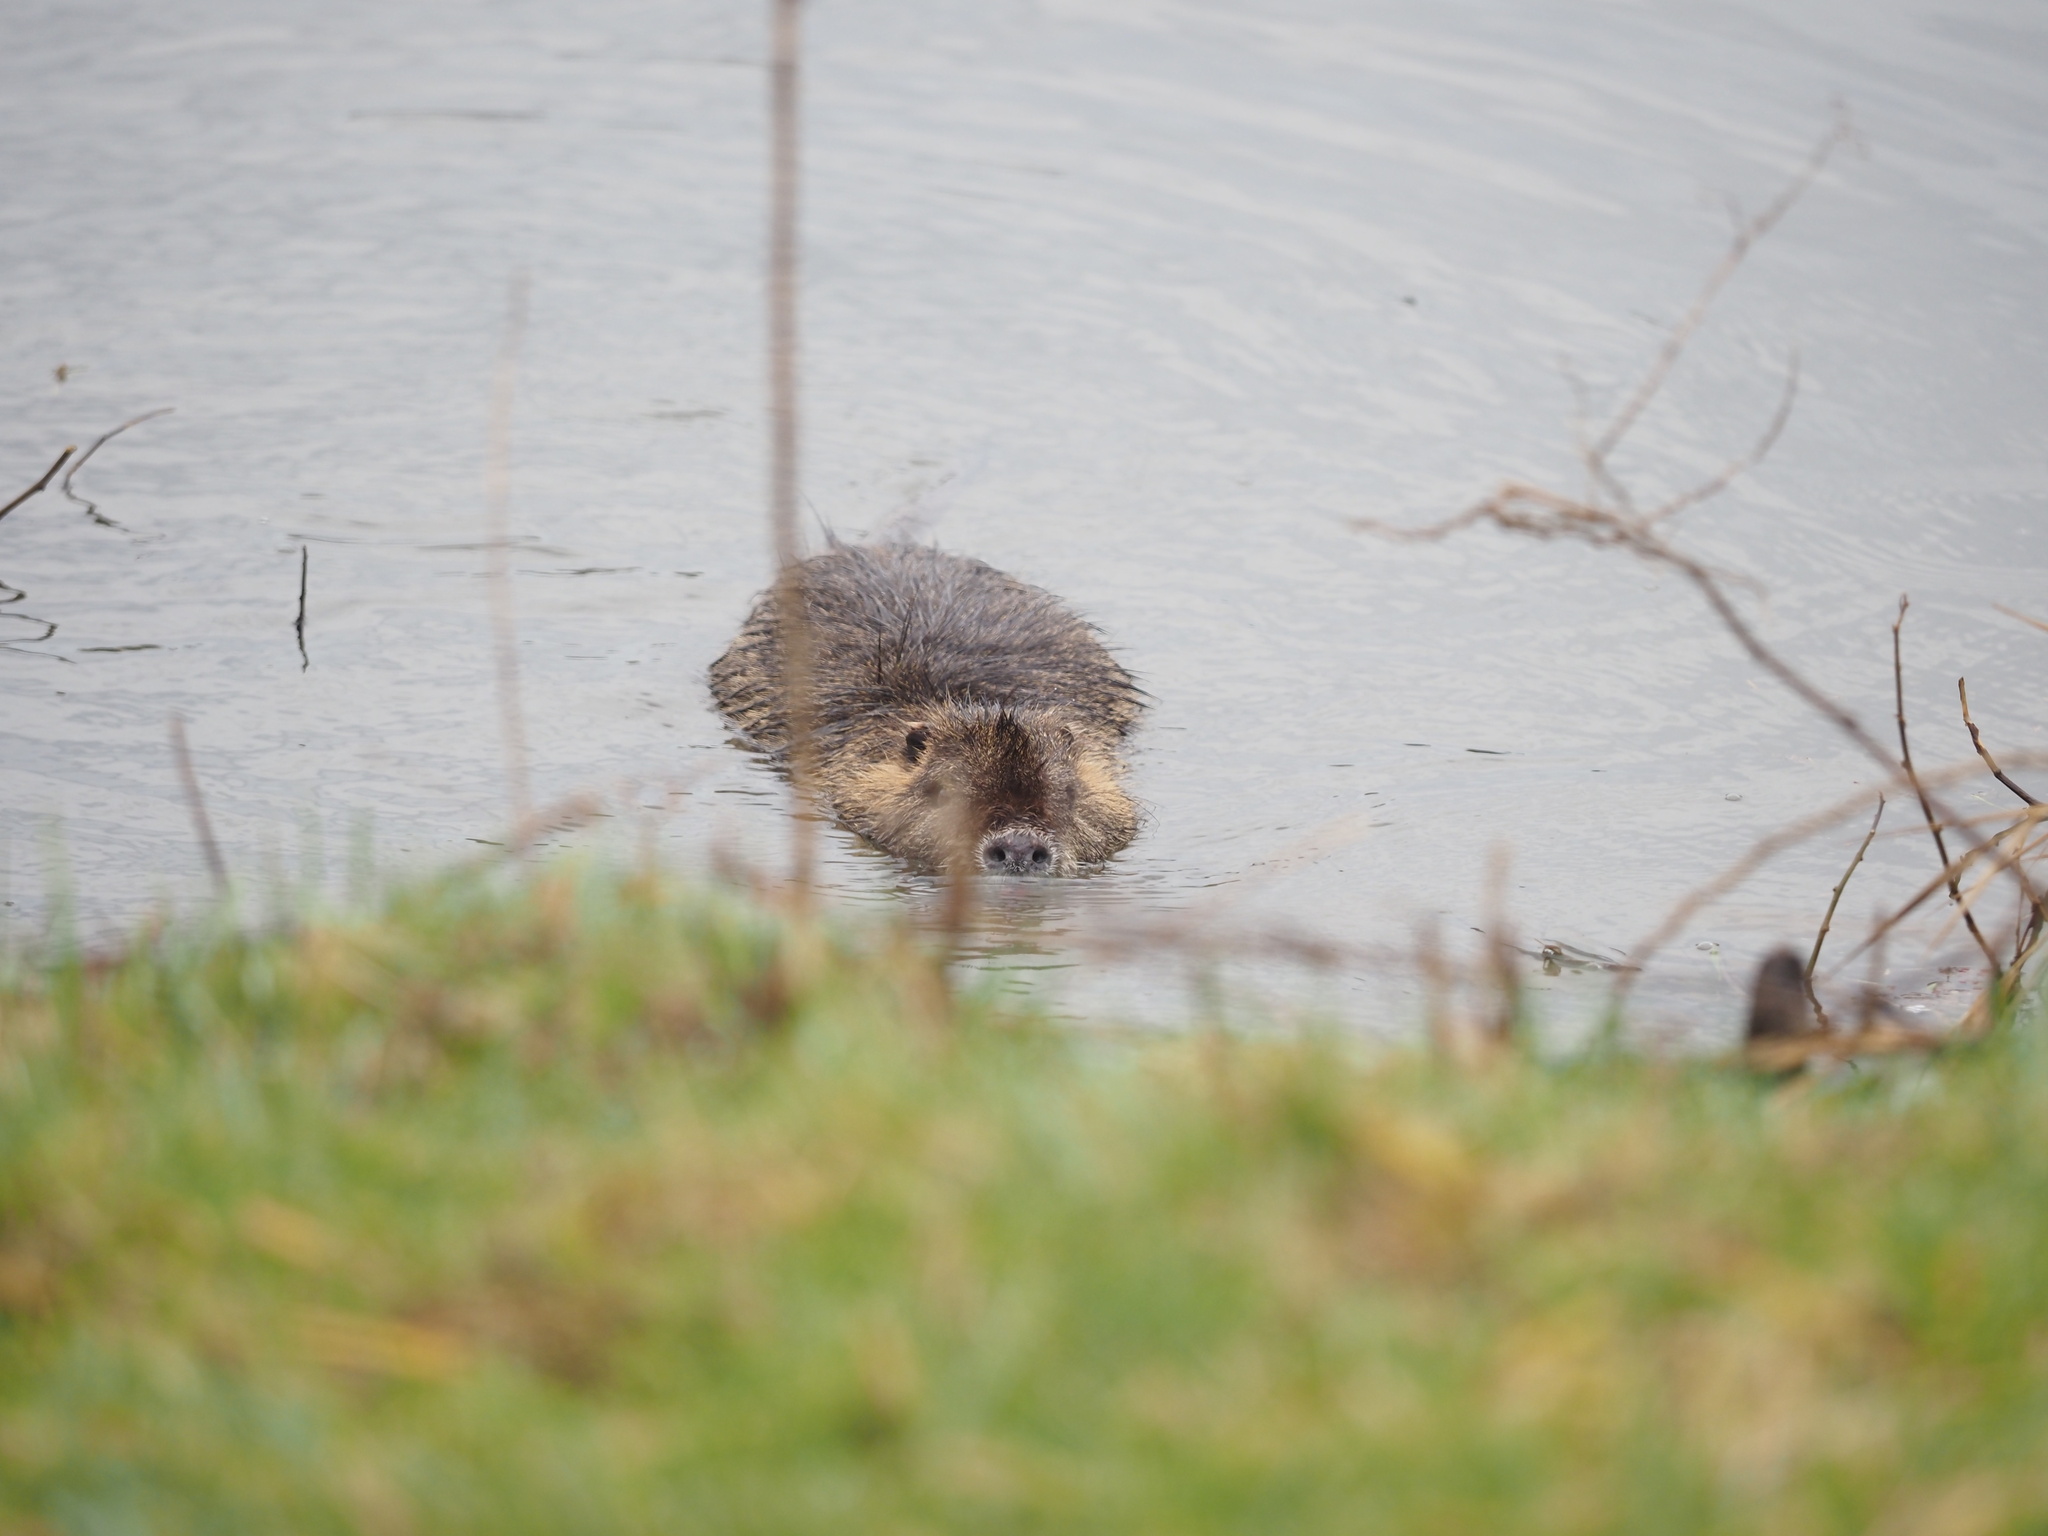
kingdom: Animalia
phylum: Chordata
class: Mammalia
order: Rodentia
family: Myocastoridae
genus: Myocastor
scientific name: Myocastor coypus
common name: Coypu
